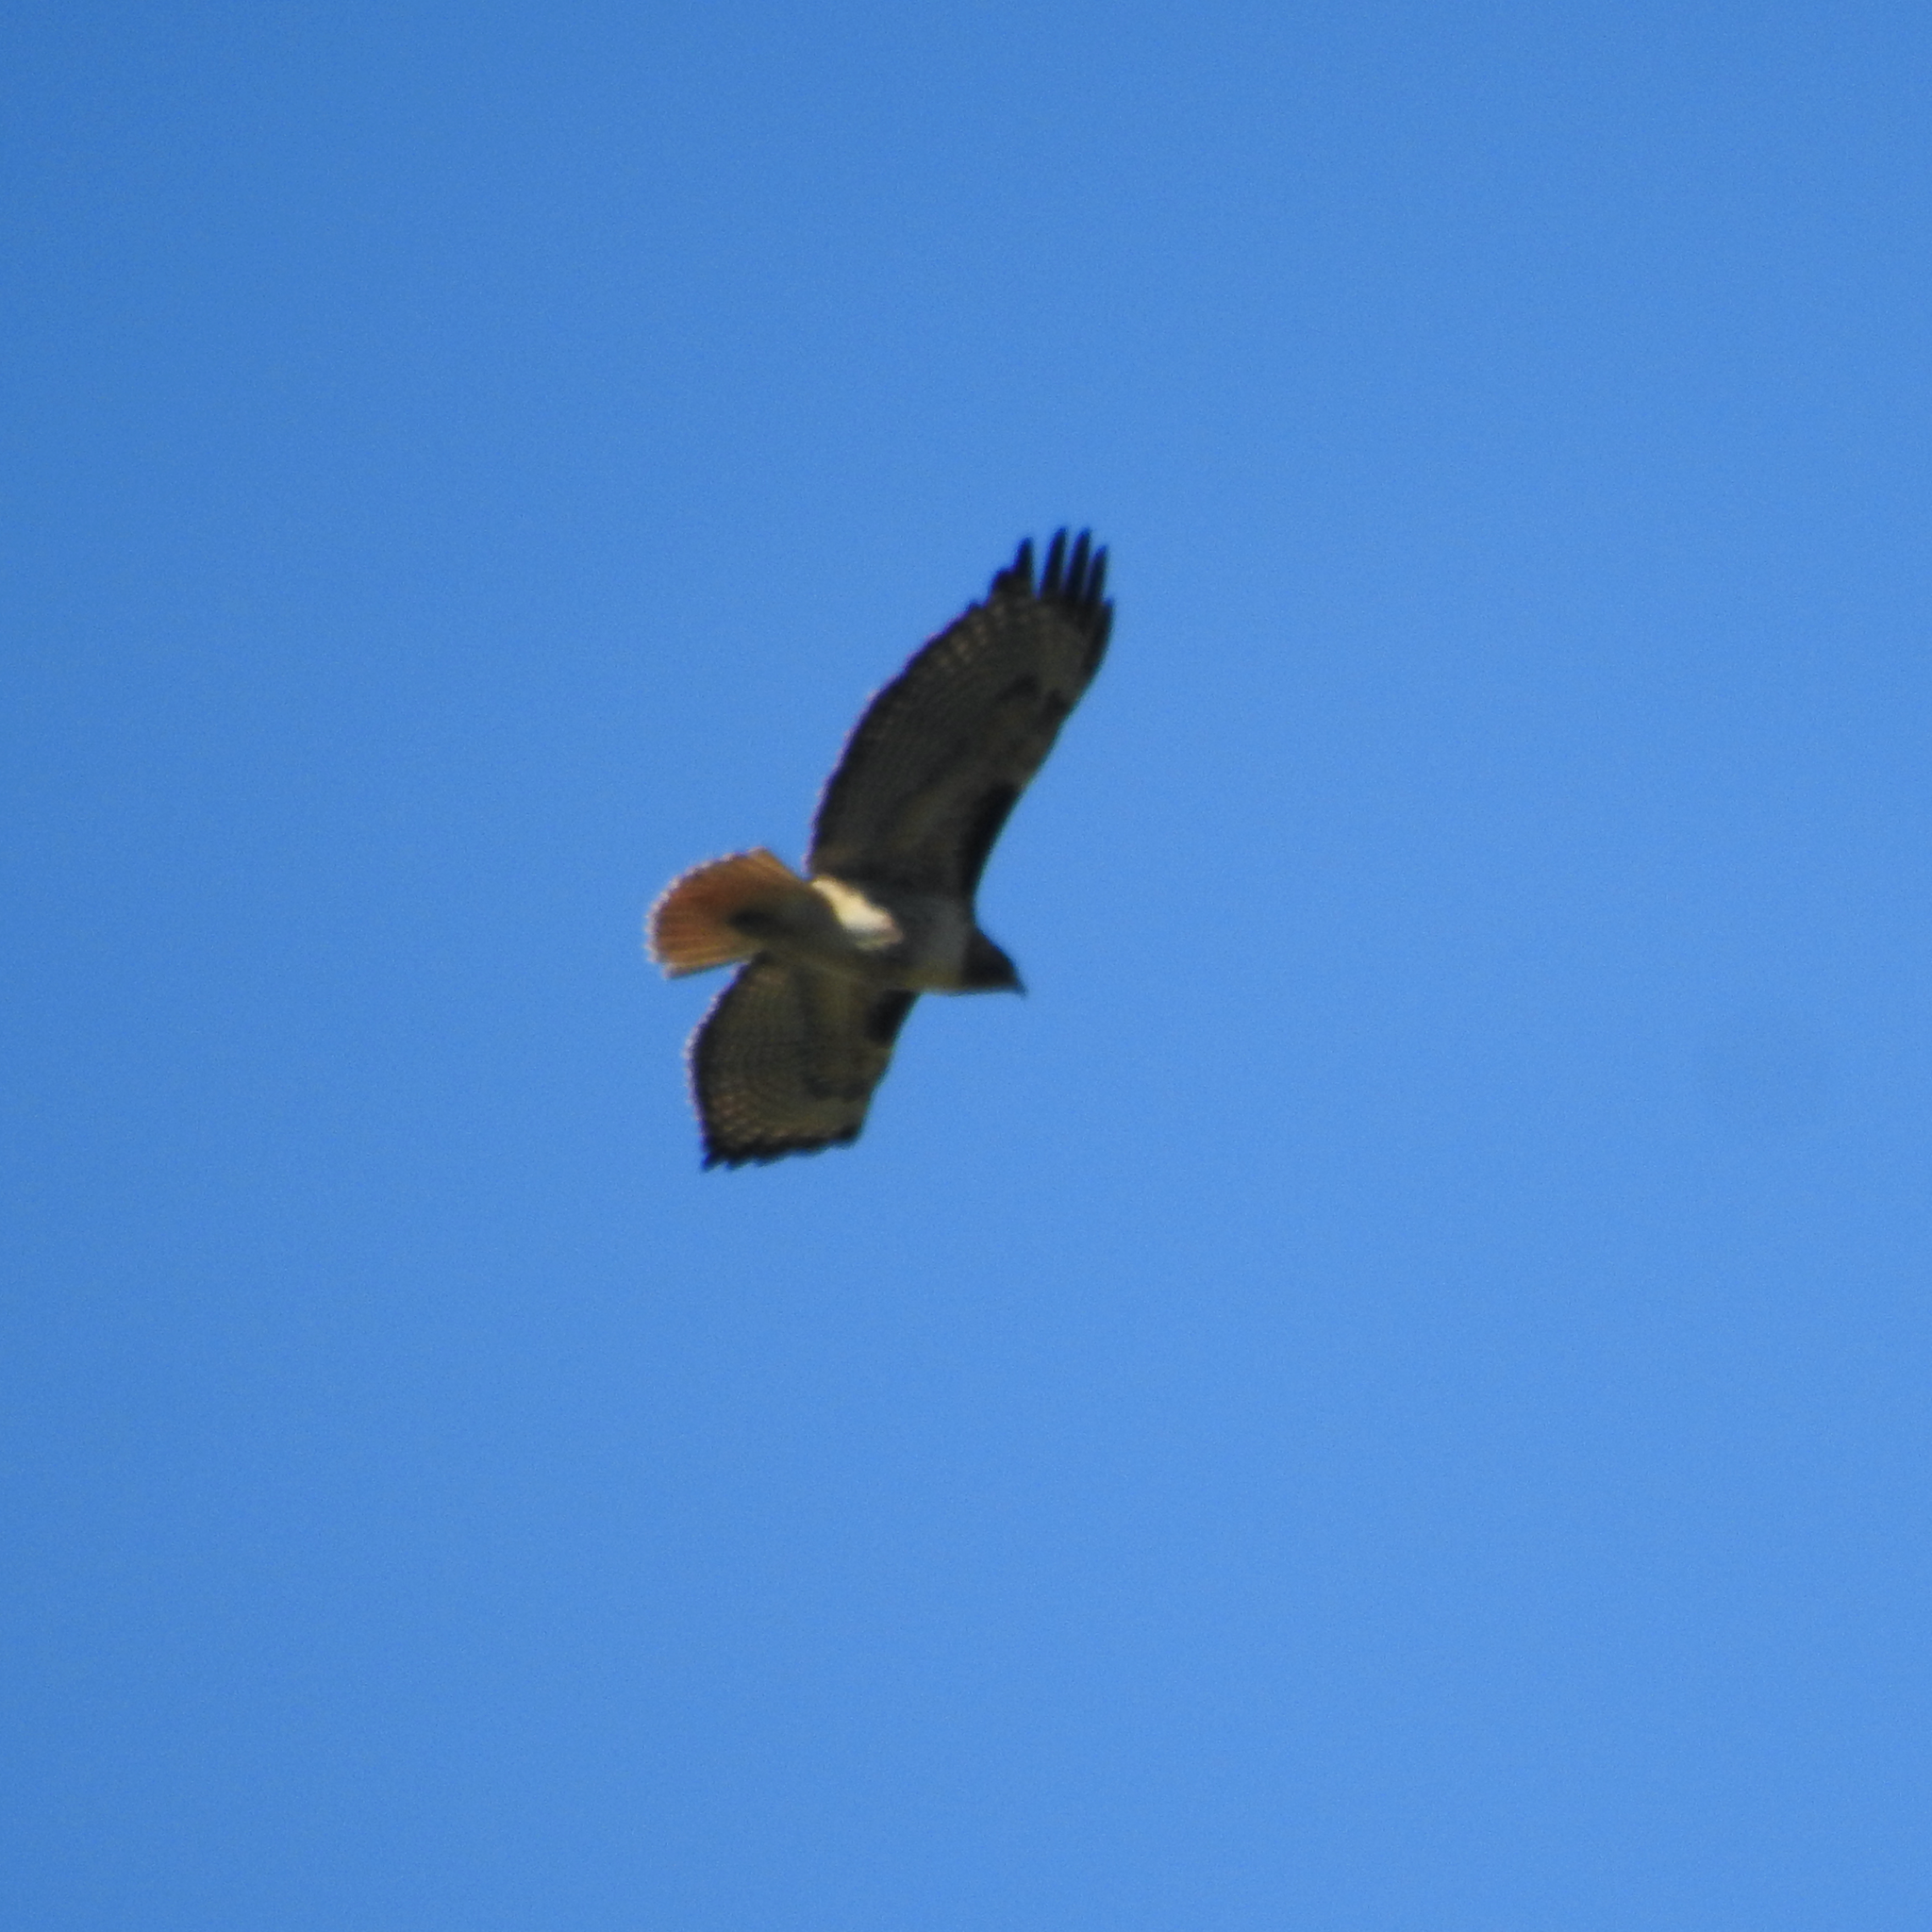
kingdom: Animalia
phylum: Chordata
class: Aves
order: Accipitriformes
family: Accipitridae
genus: Buteo
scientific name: Buteo jamaicensis
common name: Red-tailed hawk
